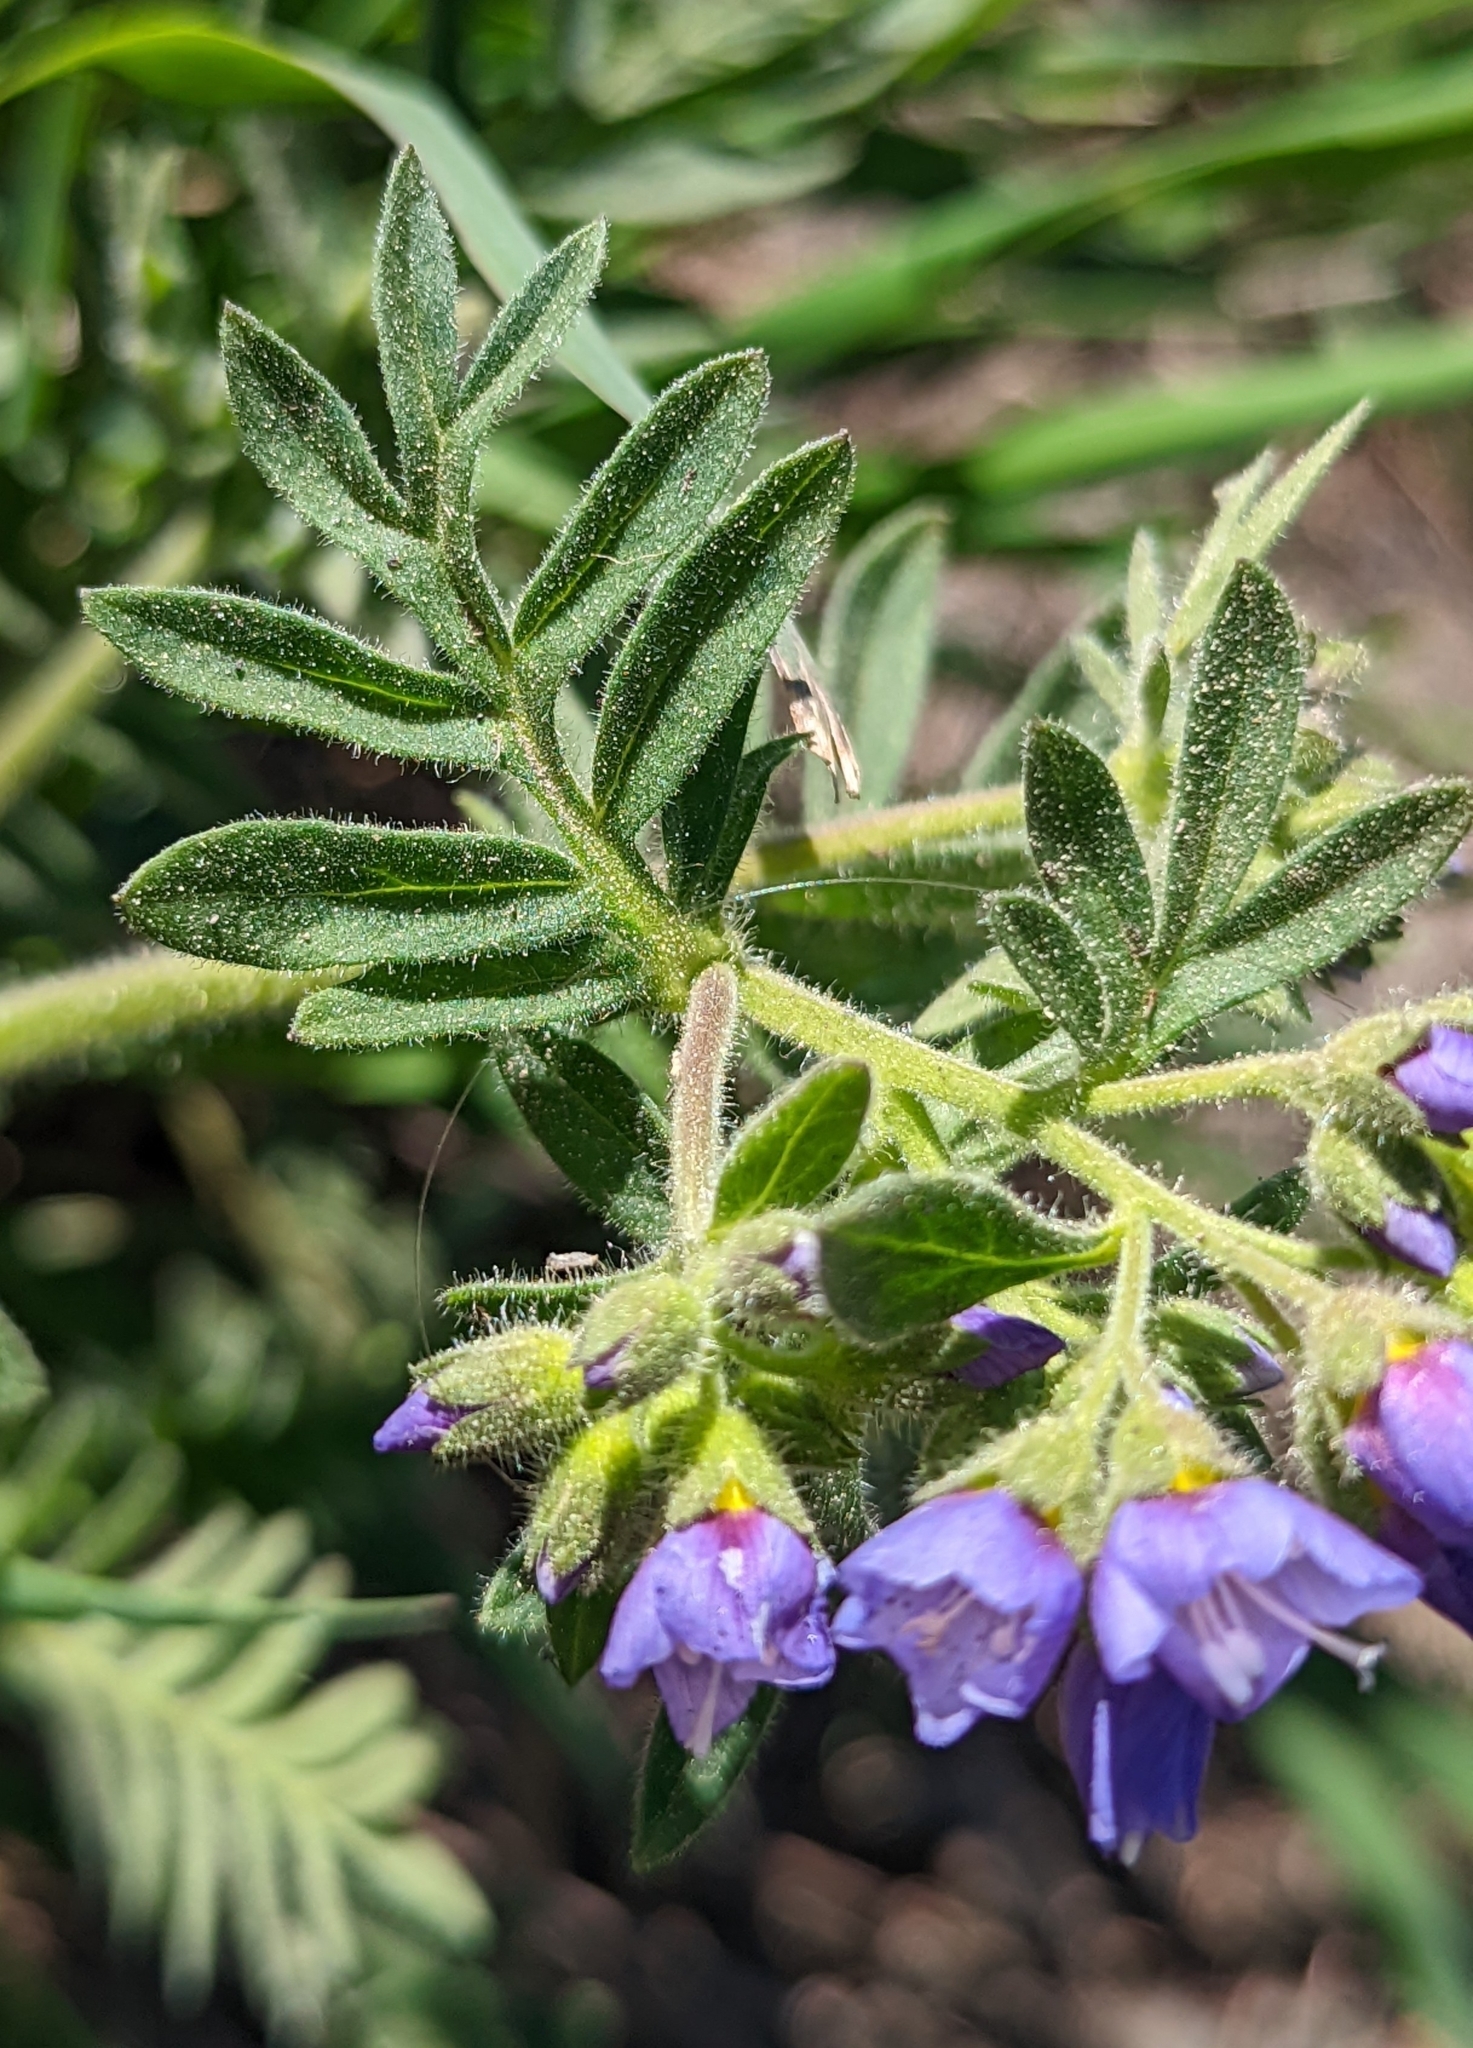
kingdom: Plantae
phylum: Tracheophyta
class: Magnoliopsida
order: Ericales
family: Polemoniaceae
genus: Polemonium
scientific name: Polemonium californicum
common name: California jacob's ladder
